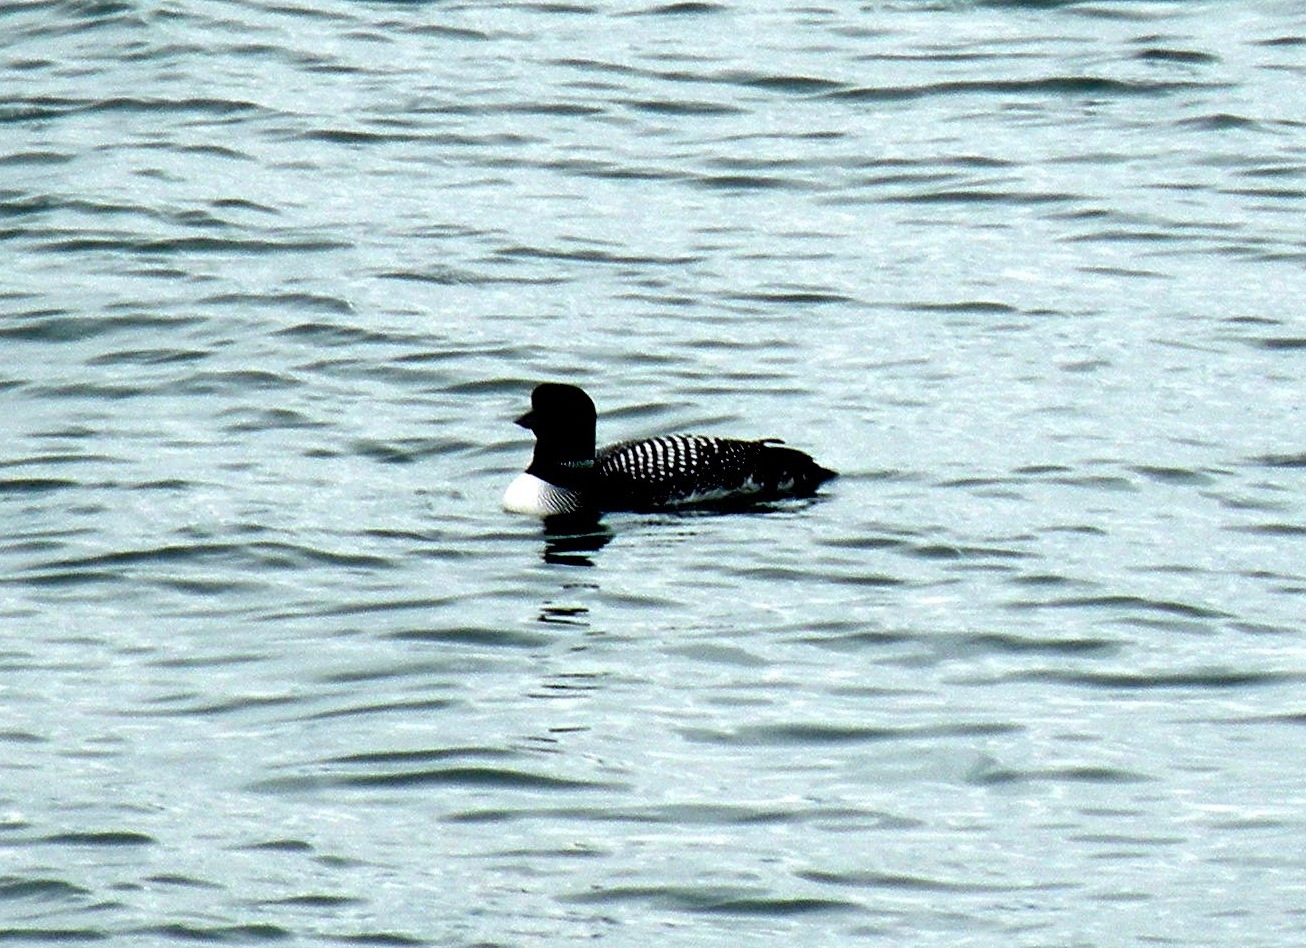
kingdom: Animalia
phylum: Chordata
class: Aves
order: Gaviiformes
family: Gaviidae
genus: Gavia
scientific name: Gavia immer
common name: Common loon
